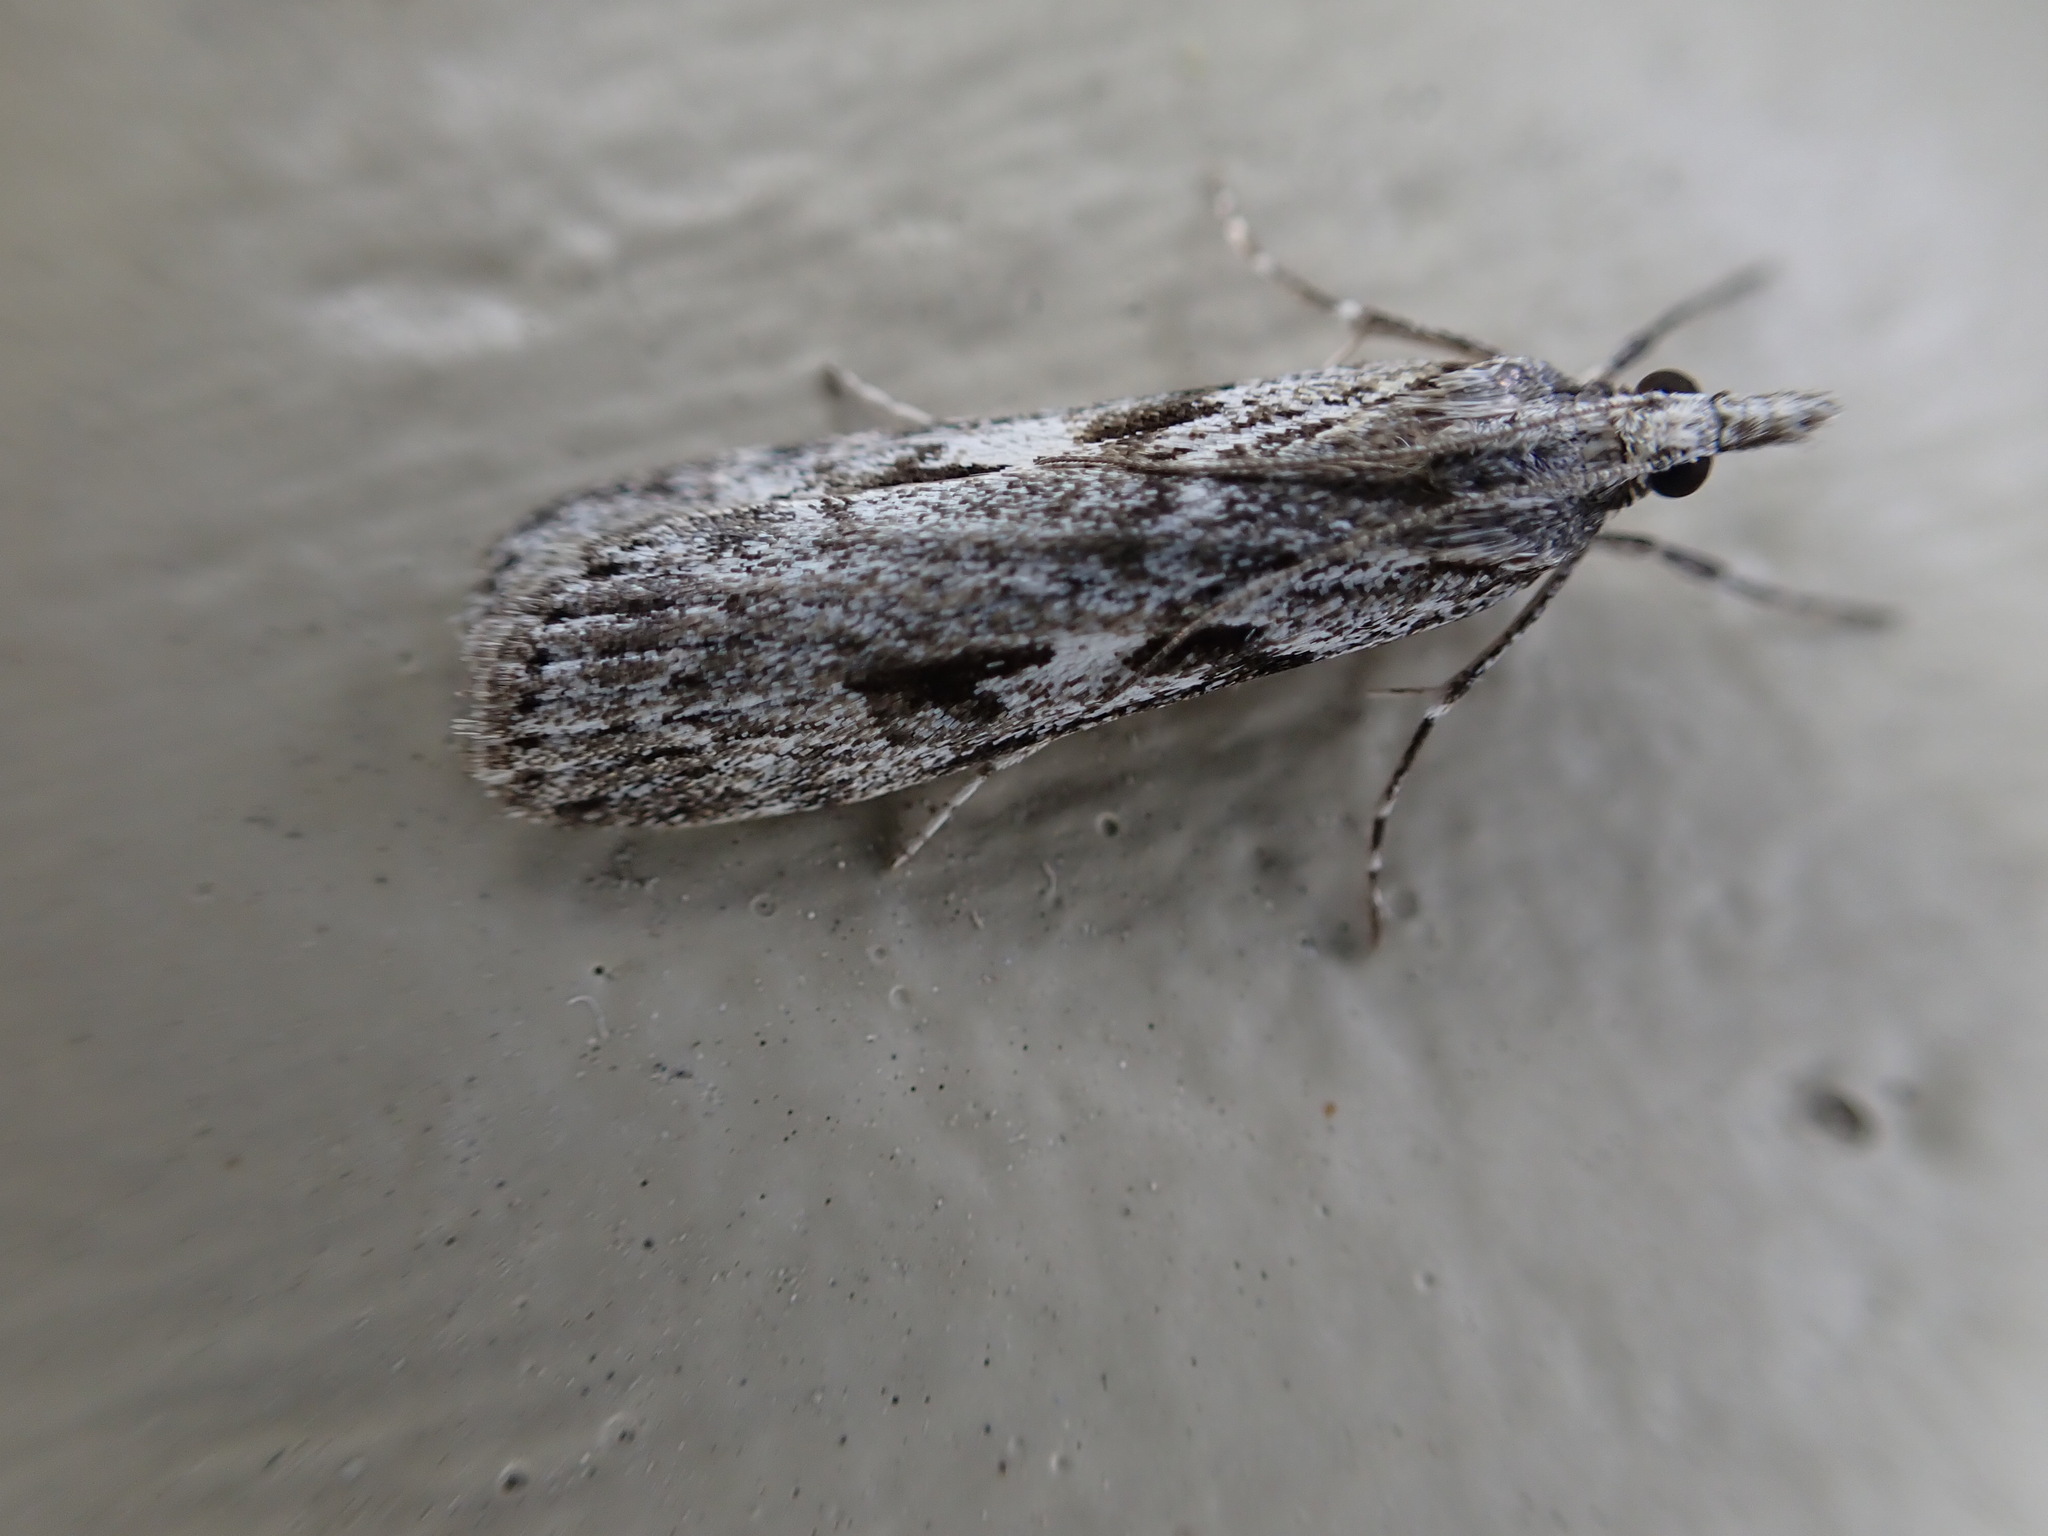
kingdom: Animalia
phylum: Arthropoda
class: Insecta
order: Lepidoptera
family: Crambidae
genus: Scoparia
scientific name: Scoparia halopis
